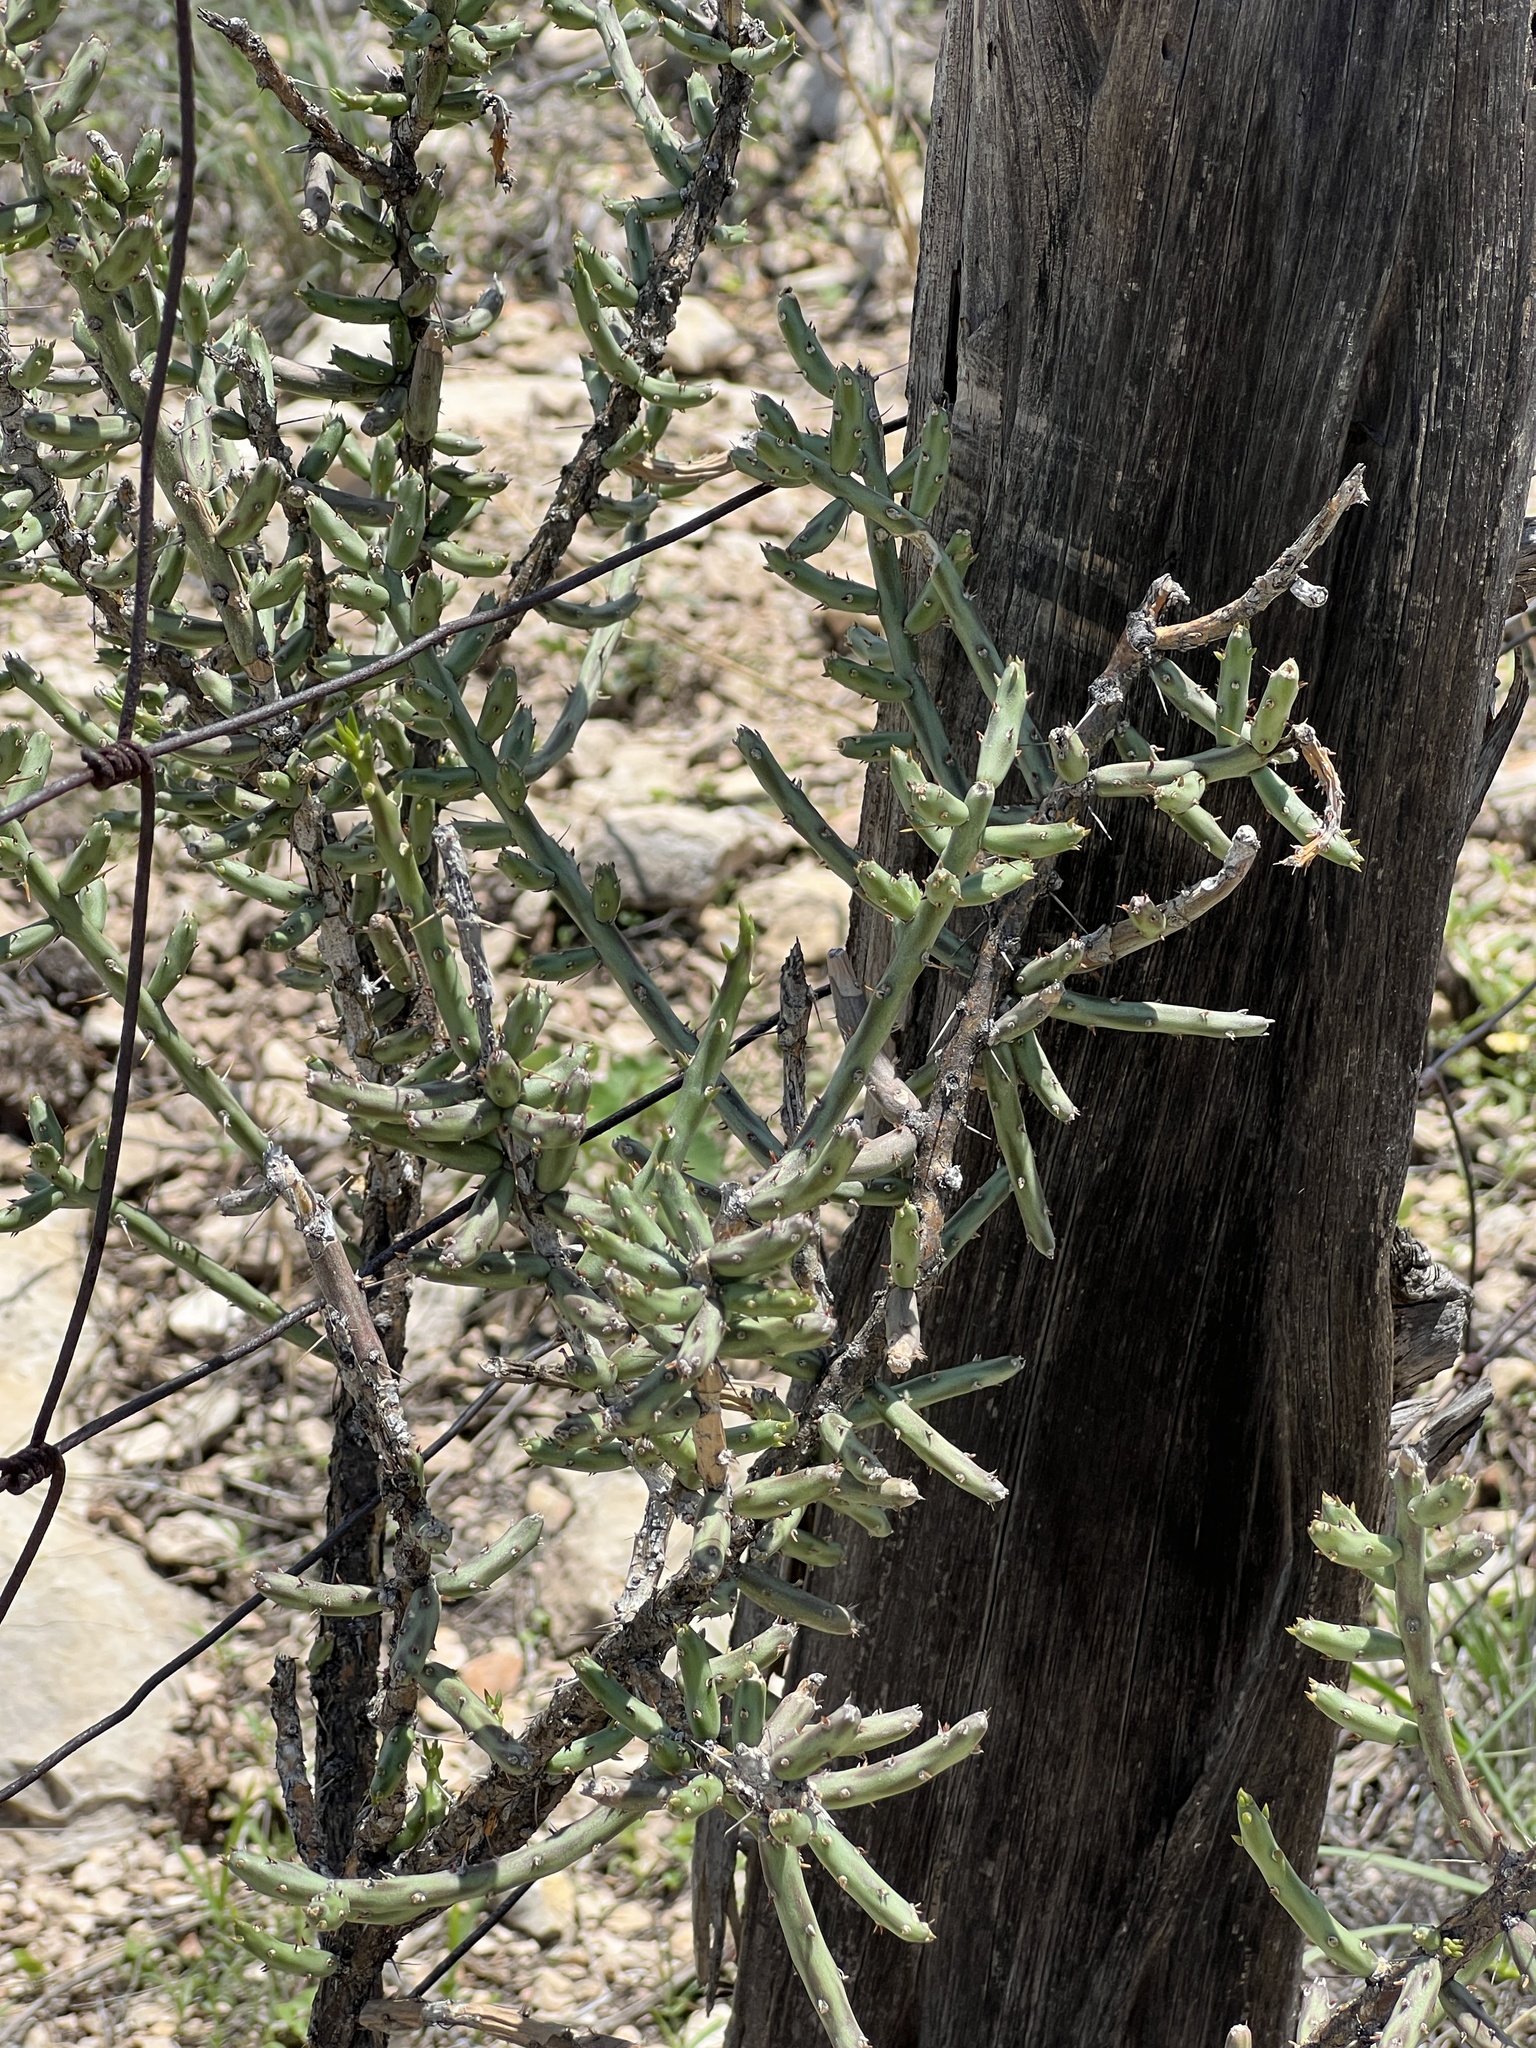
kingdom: Plantae
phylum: Tracheophyta
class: Magnoliopsida
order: Caryophyllales
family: Cactaceae
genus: Cylindropuntia
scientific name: Cylindropuntia leptocaulis
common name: Christmas cactus
